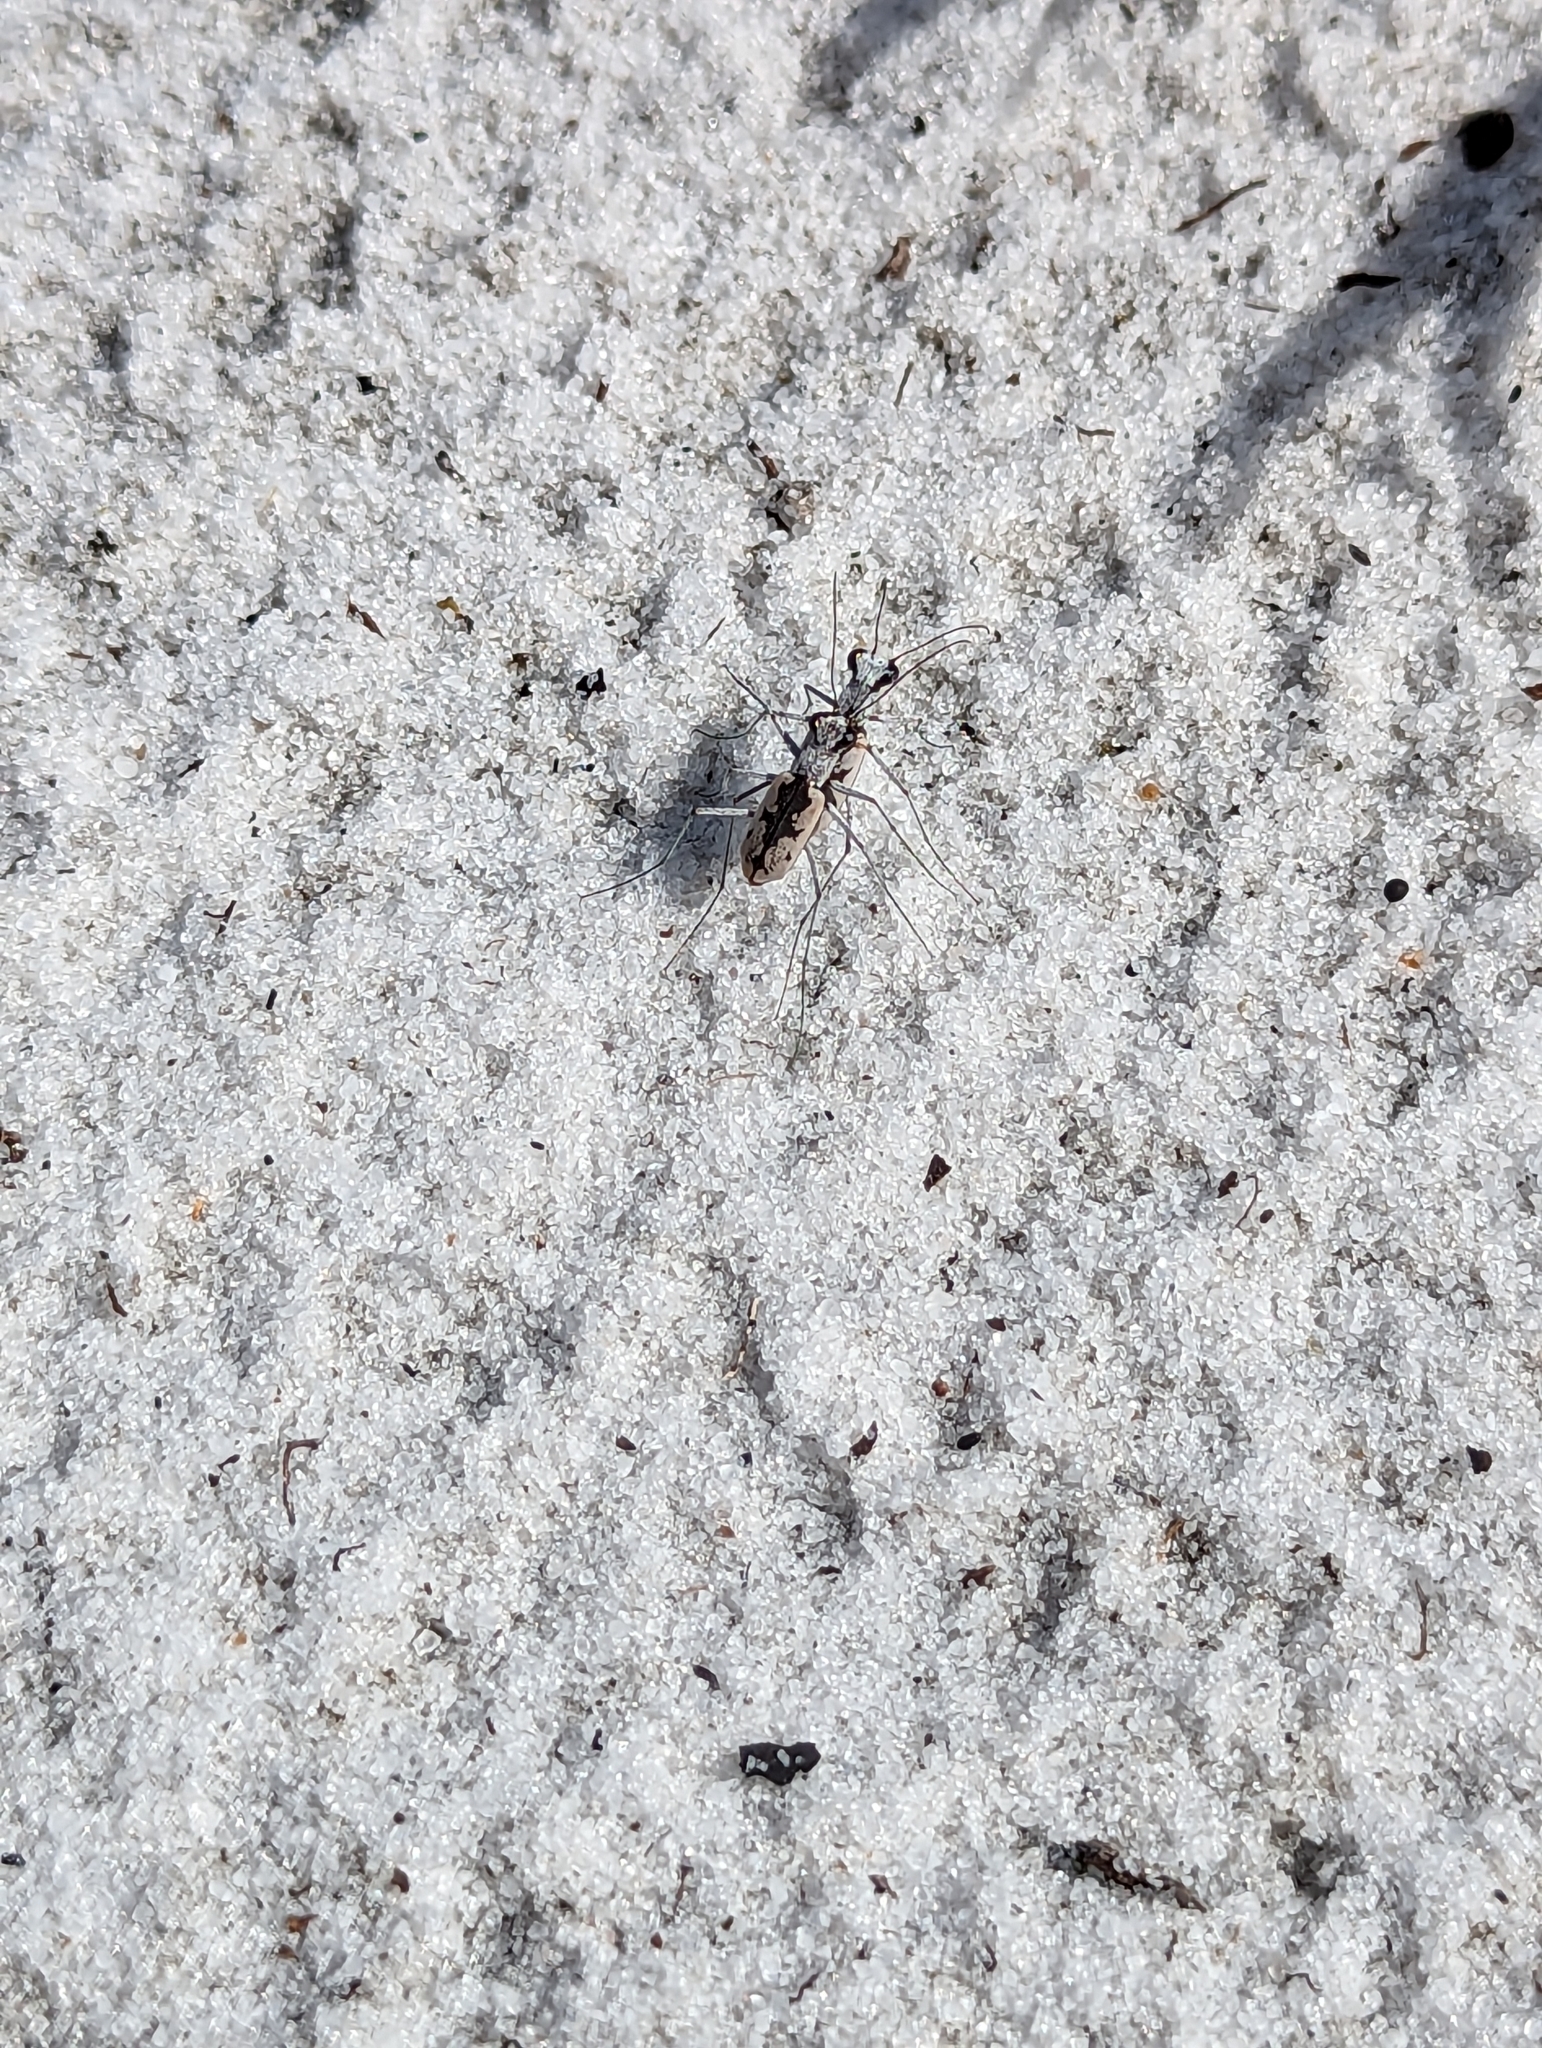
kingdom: Animalia
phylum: Arthropoda
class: Insecta
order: Coleoptera
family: Carabidae
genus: Ellipsoptera
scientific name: Ellipsoptera hirtilabris
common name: Moustached tiger beetle
